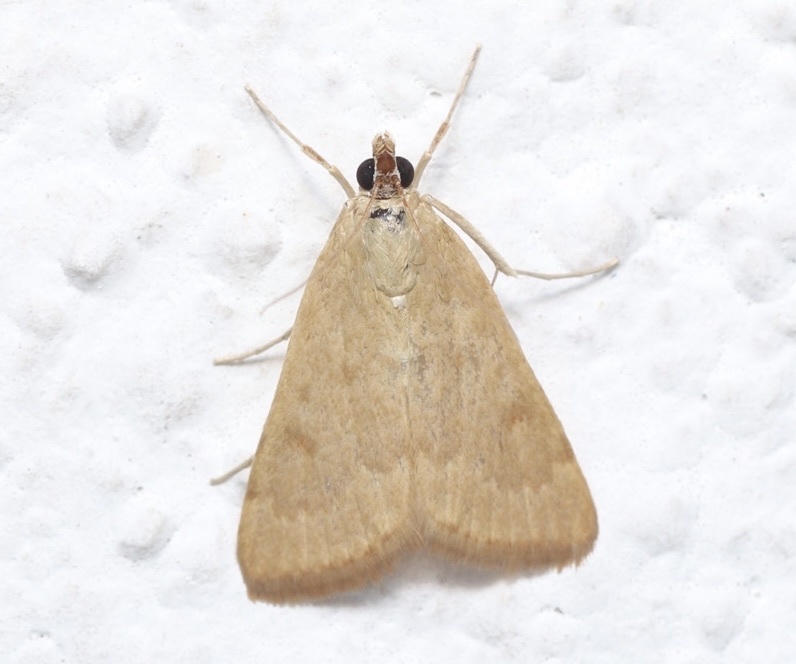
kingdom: Animalia
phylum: Arthropoda
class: Insecta
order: Lepidoptera
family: Crambidae
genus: Achyra
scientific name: Achyra rantalis
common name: Garden webworm
